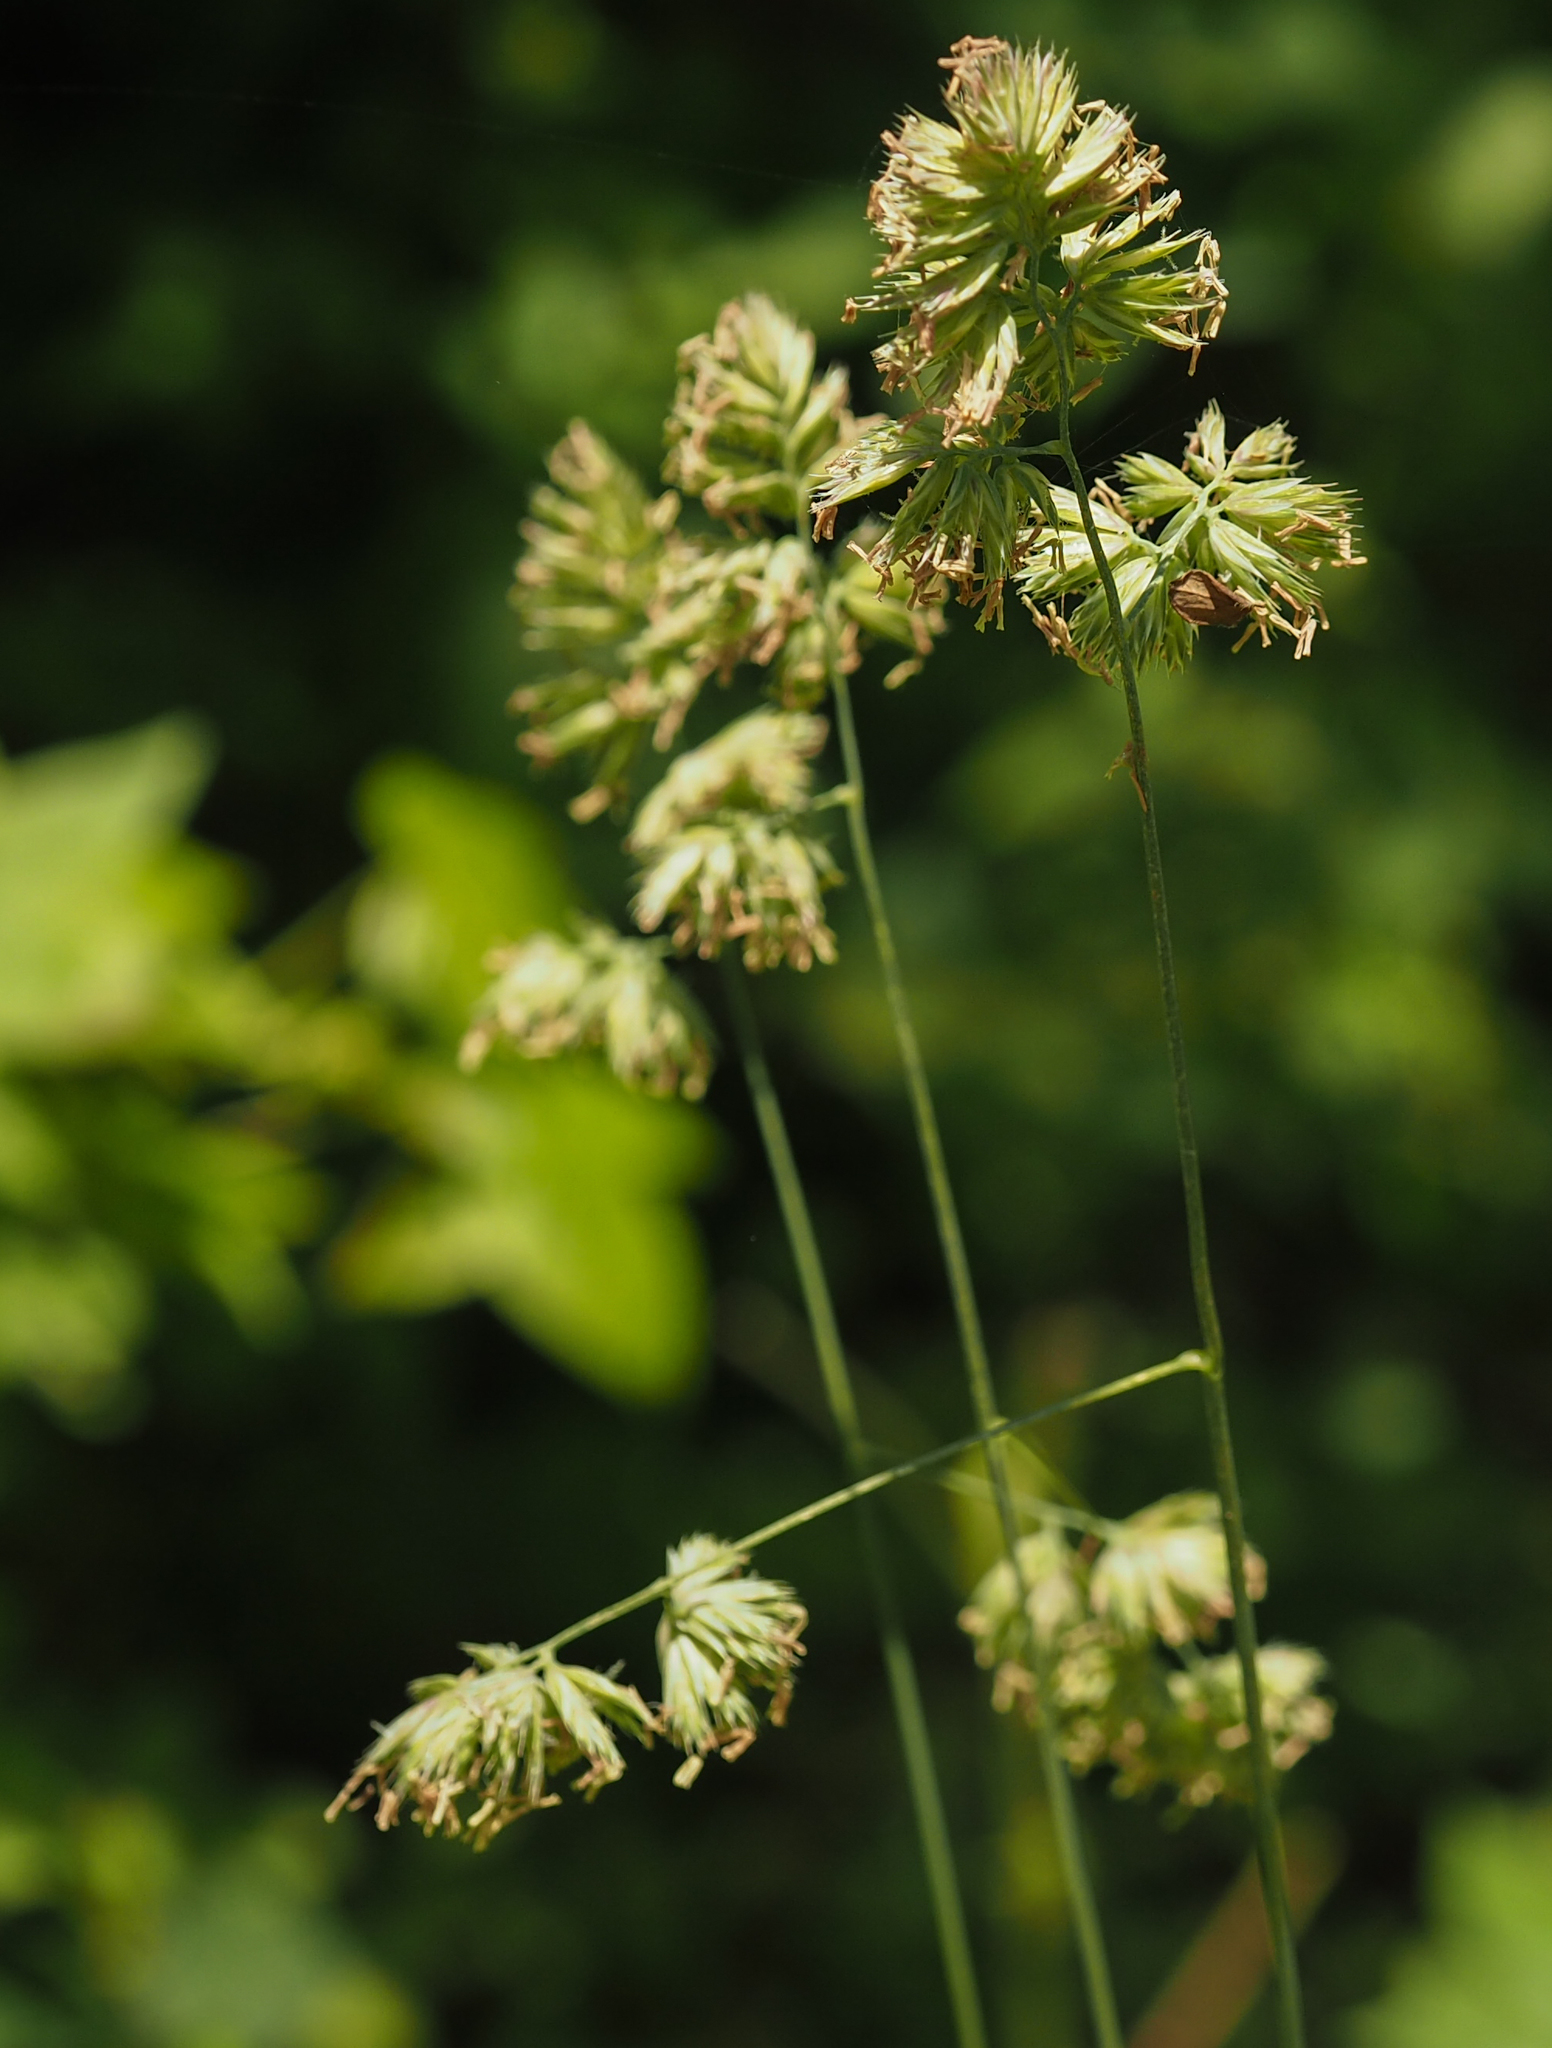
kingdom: Plantae
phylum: Tracheophyta
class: Liliopsida
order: Poales
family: Poaceae
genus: Dactylis
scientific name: Dactylis glomerata
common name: Orchardgrass
